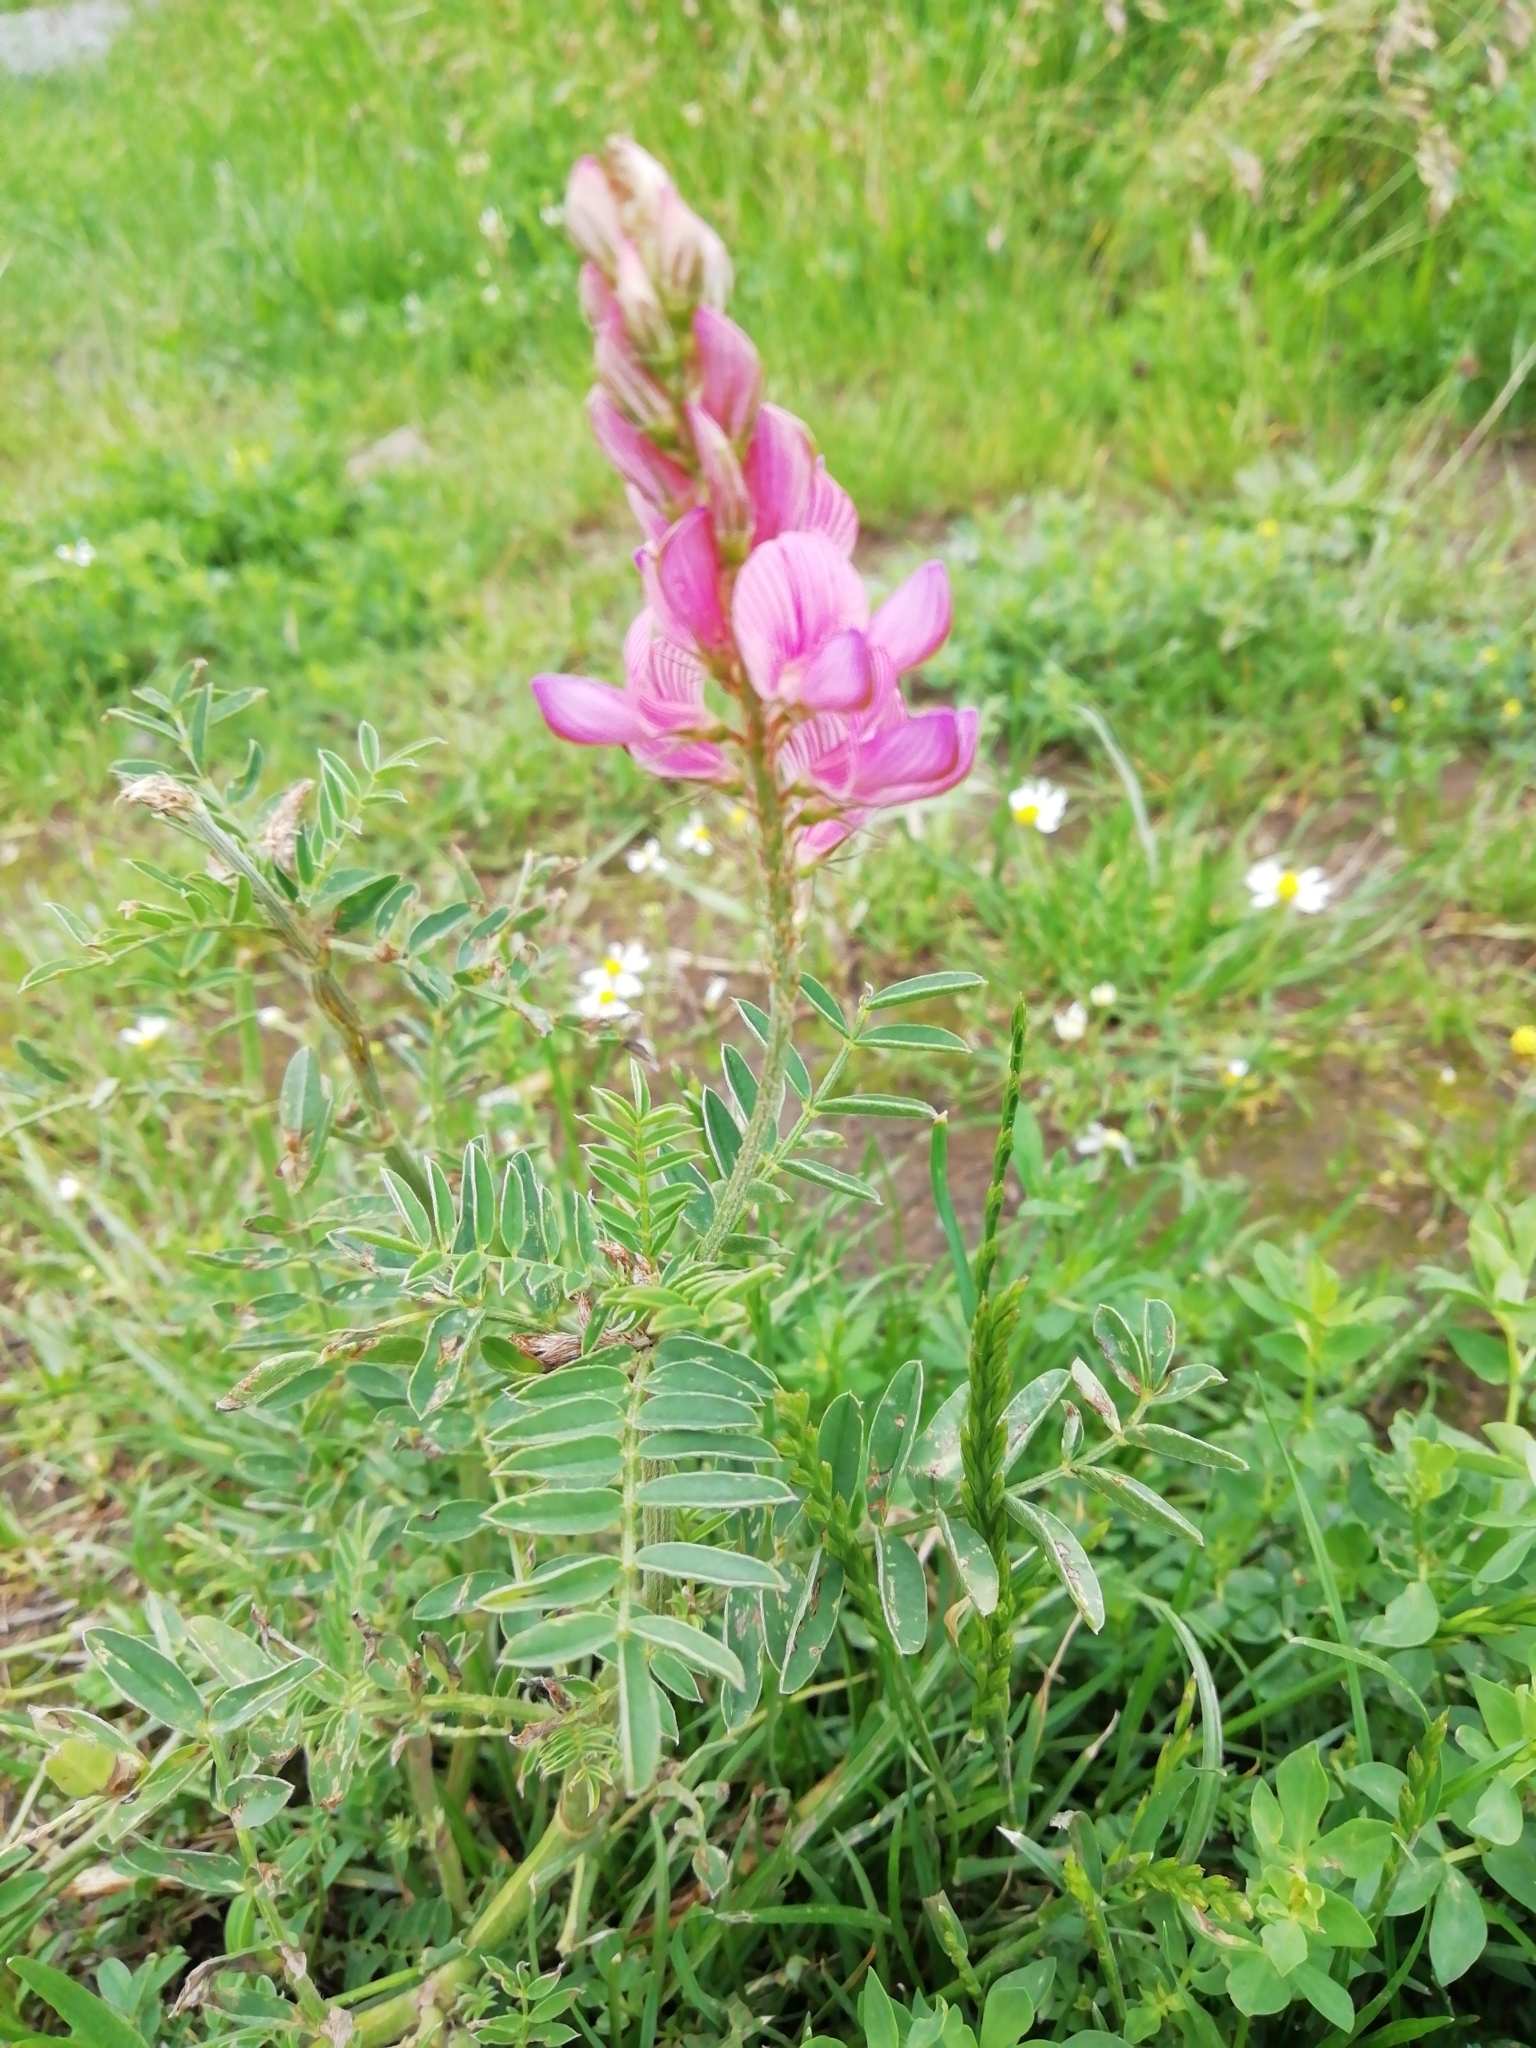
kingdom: Plantae
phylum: Tracheophyta
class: Magnoliopsida
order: Fabales
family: Fabaceae
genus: Onobrychis
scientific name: Onobrychis viciifolia
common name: Sainfoin
